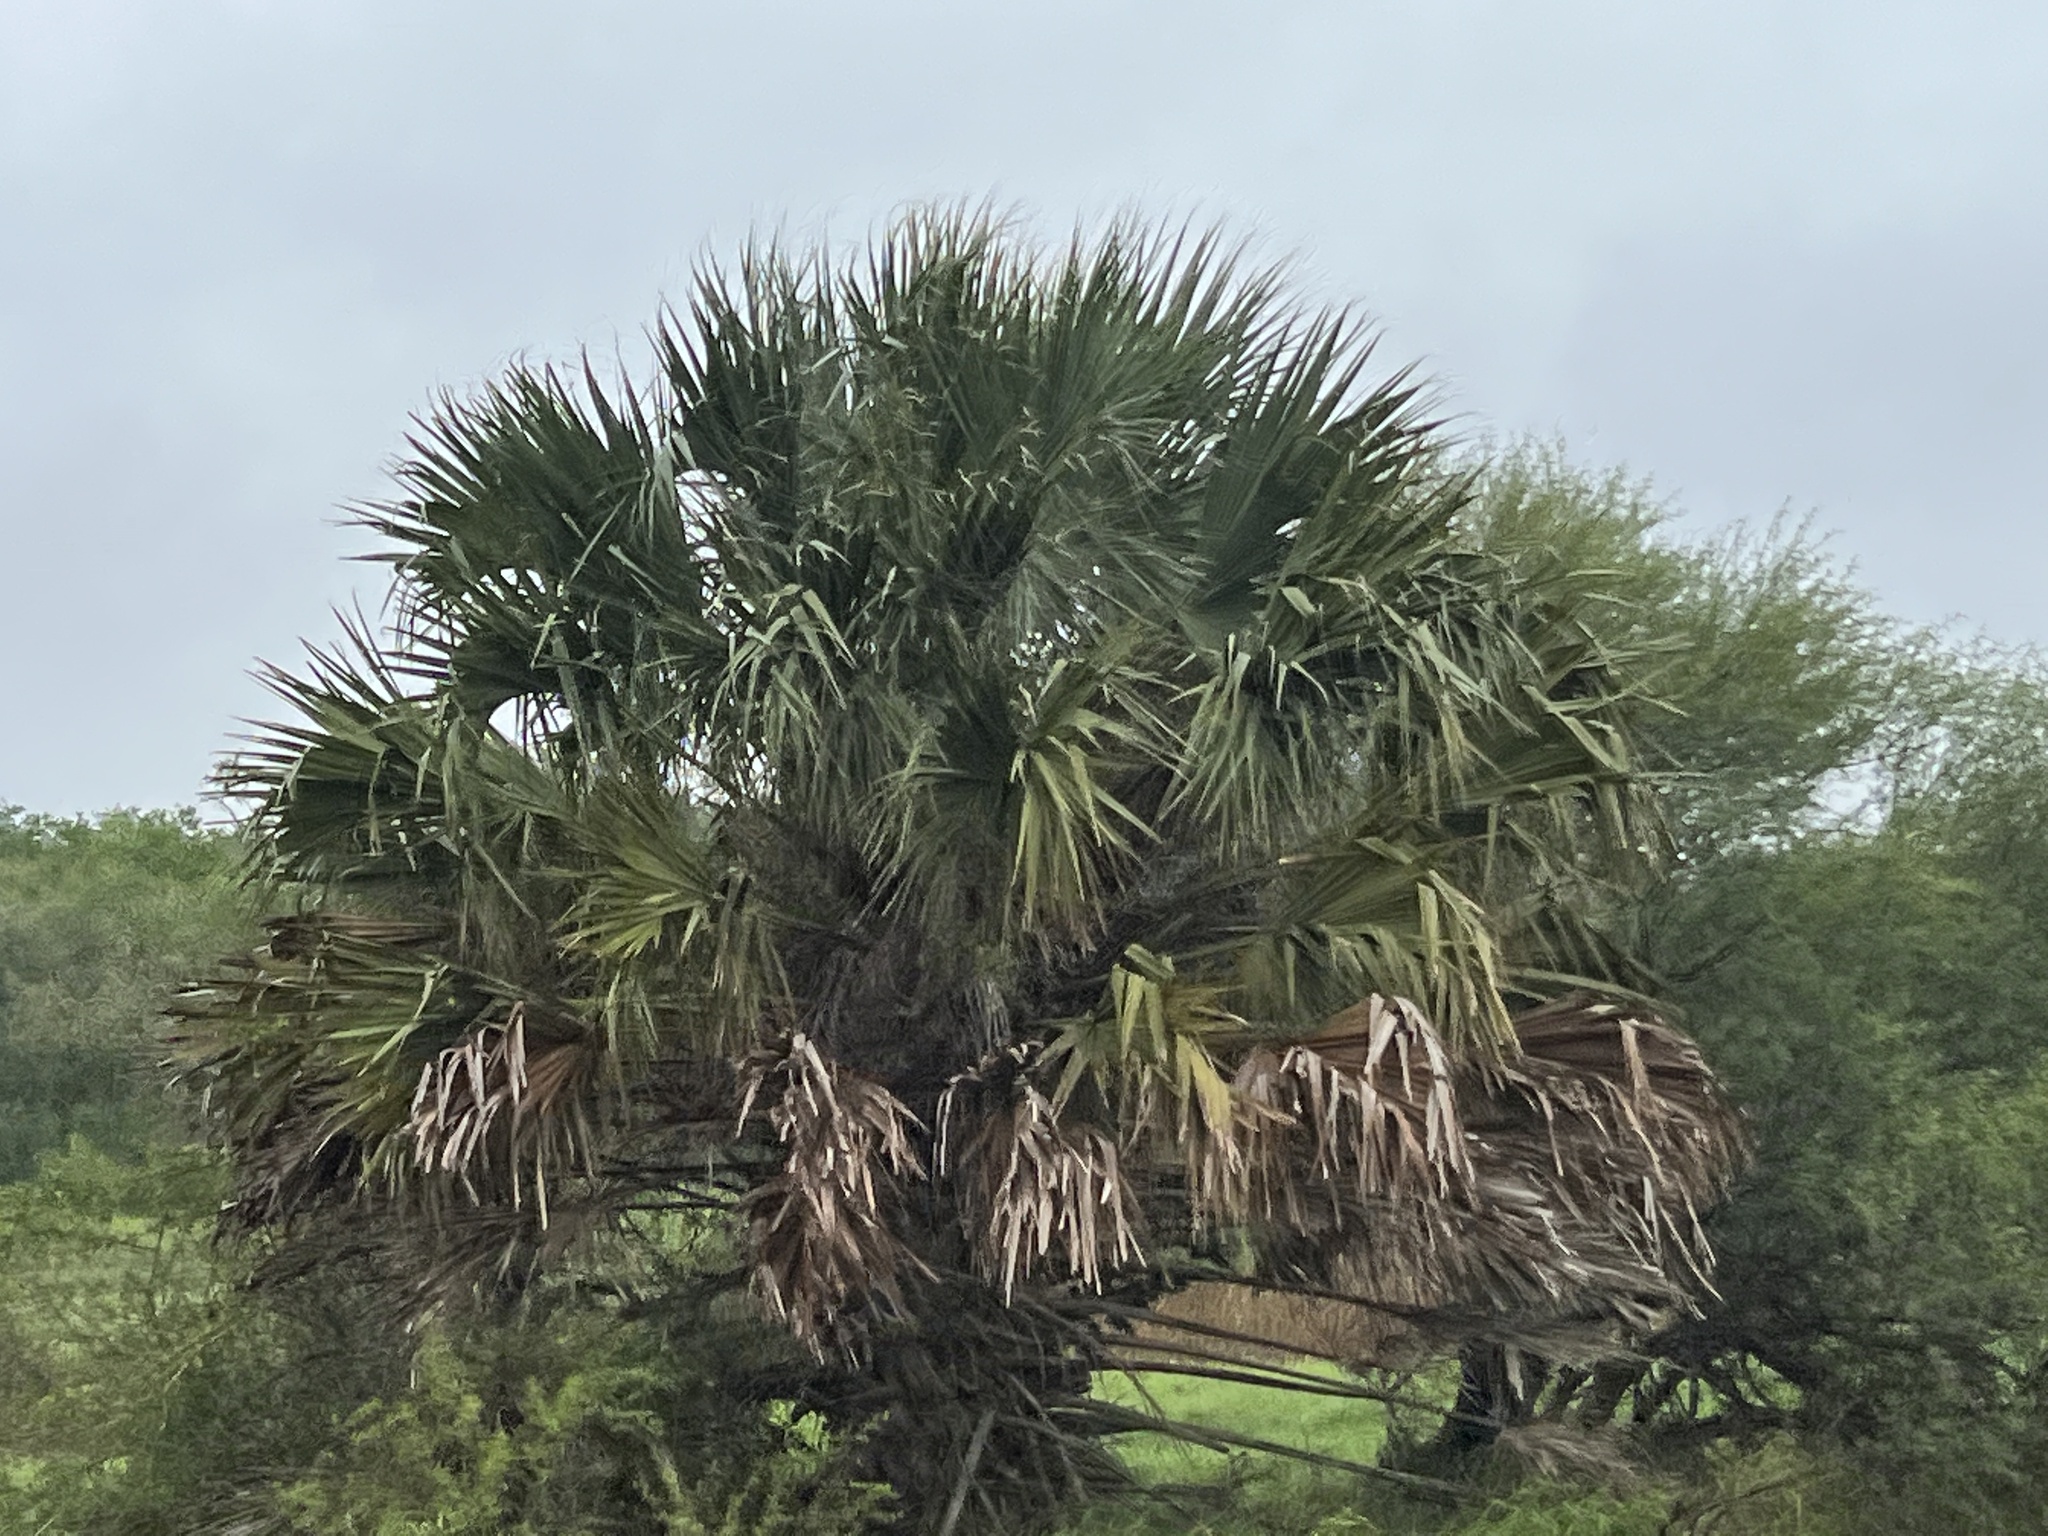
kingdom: Plantae
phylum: Tracheophyta
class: Liliopsida
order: Arecales
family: Arecaceae
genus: Sabal
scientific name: Sabal mexicana
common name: Texas palmetto
